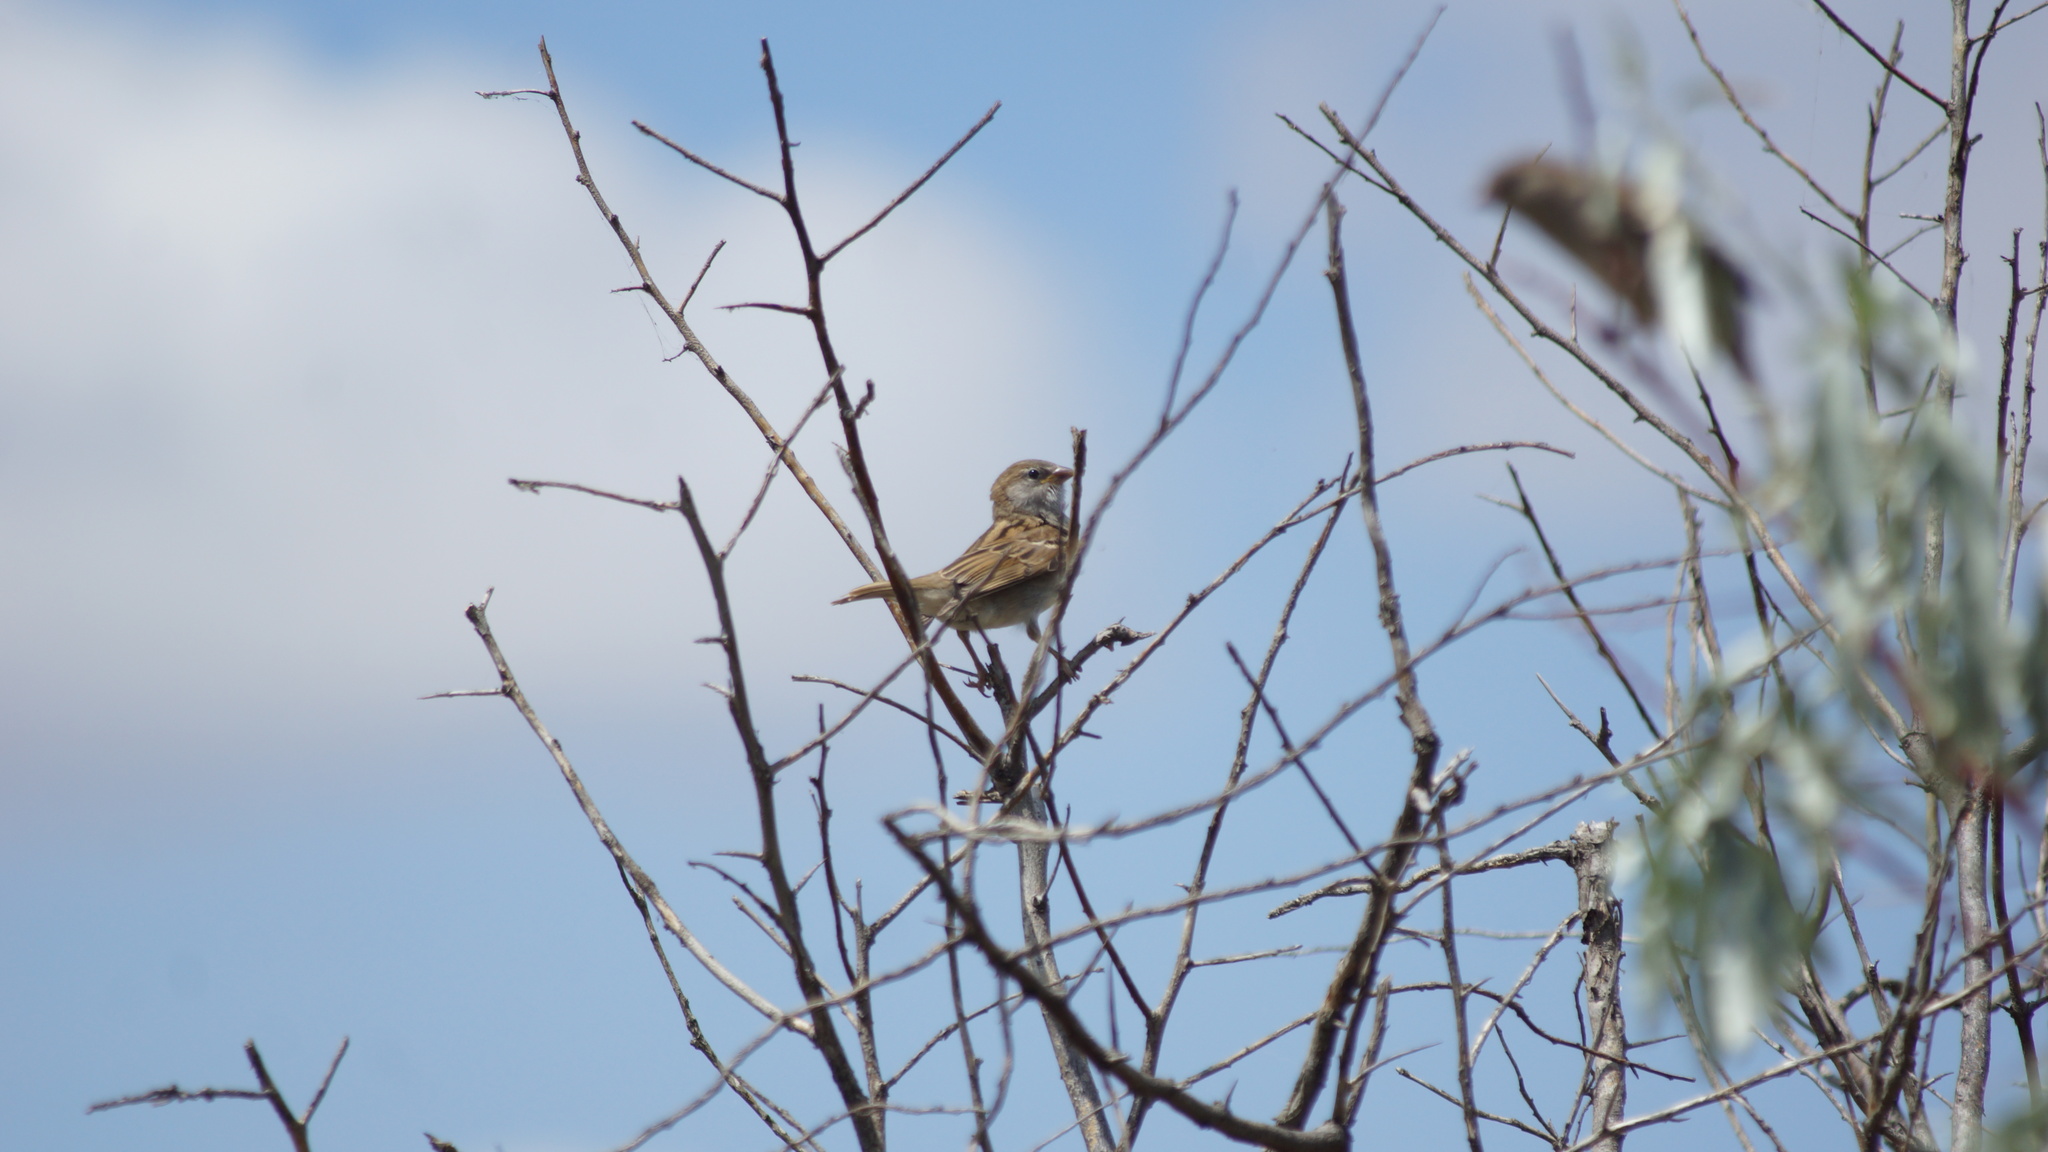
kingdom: Animalia
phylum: Chordata
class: Aves
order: Passeriformes
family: Passeridae
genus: Passer
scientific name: Passer domesticus
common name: House sparrow
